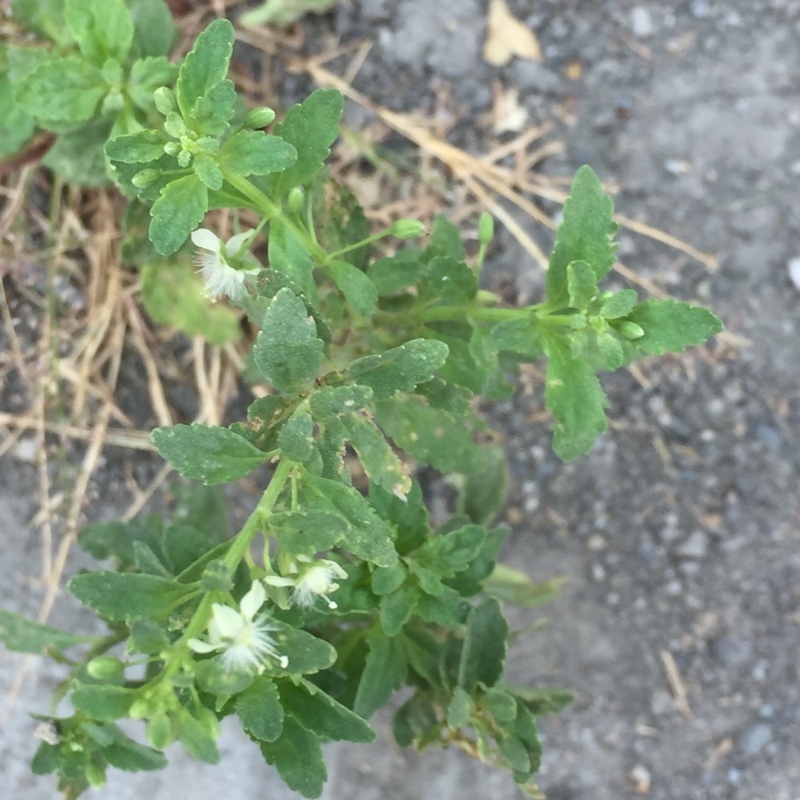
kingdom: Plantae
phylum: Tracheophyta
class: Magnoliopsida
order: Lamiales
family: Plantaginaceae
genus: Scoparia
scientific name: Scoparia dulcis
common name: Scoparia-weed
